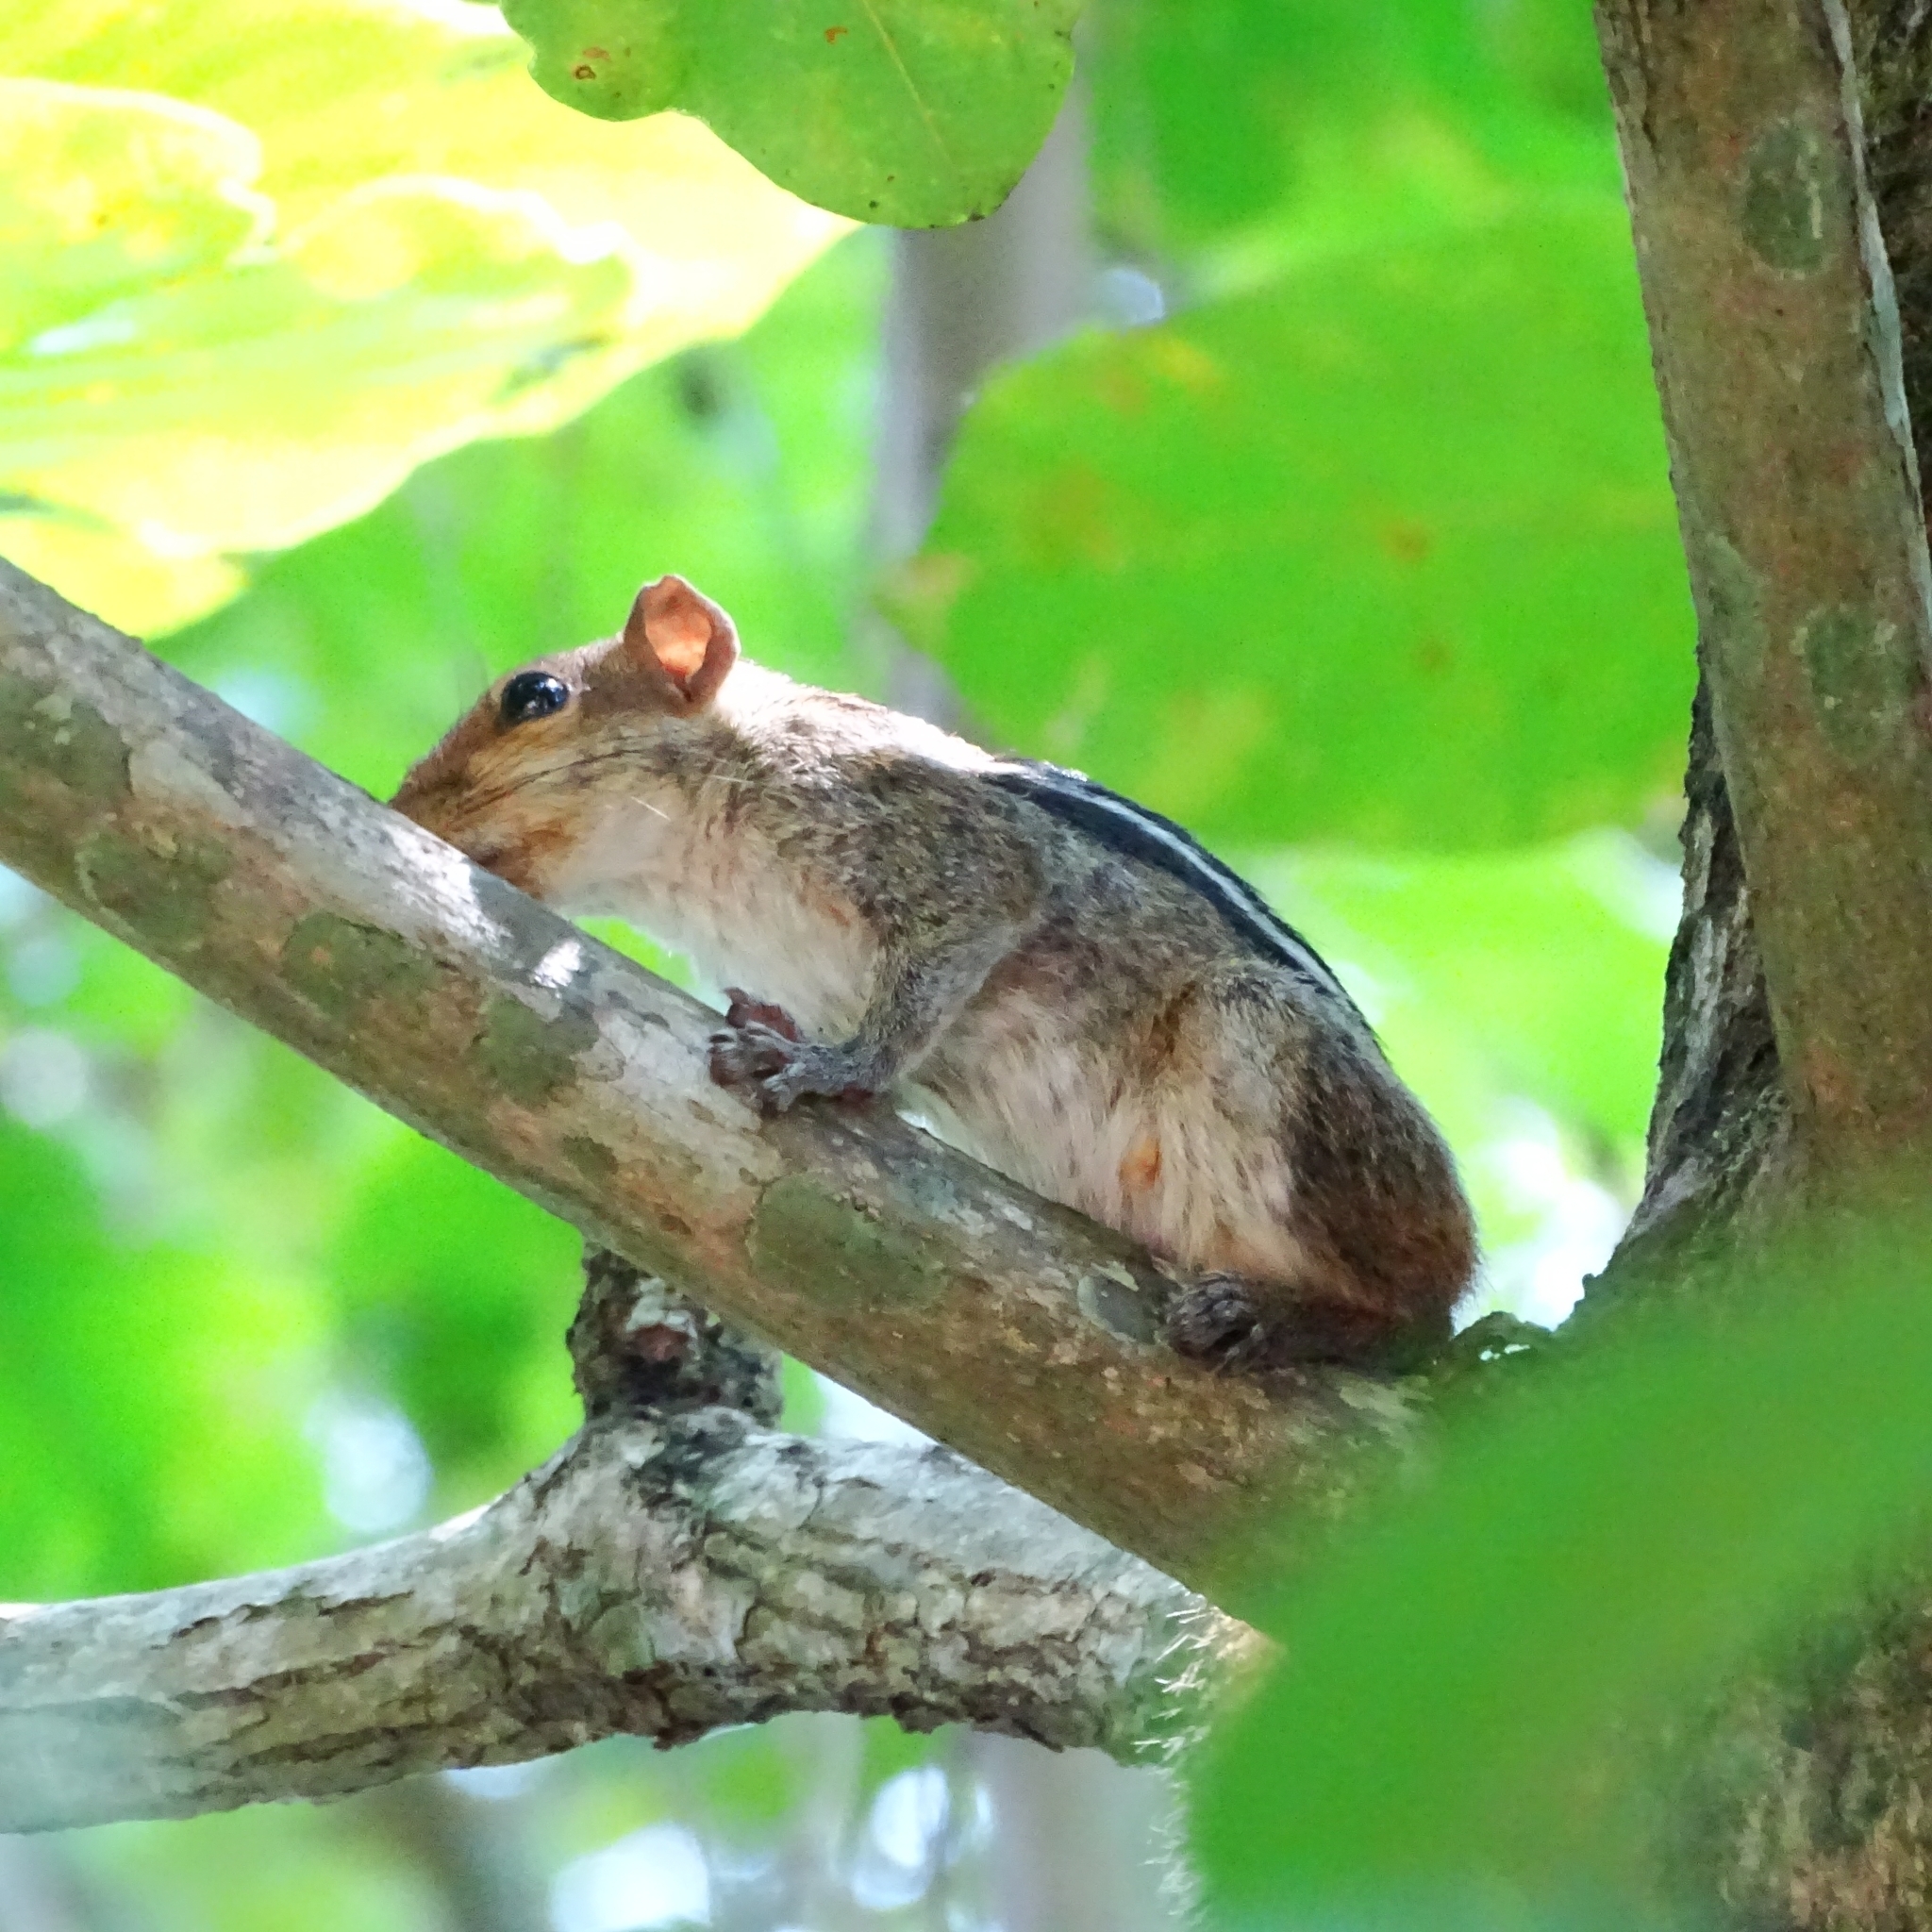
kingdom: Animalia
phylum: Chordata
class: Mammalia
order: Rodentia
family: Sciuridae
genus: Funambulus
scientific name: Funambulus tristriatus
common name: Jungle palm squirrel
